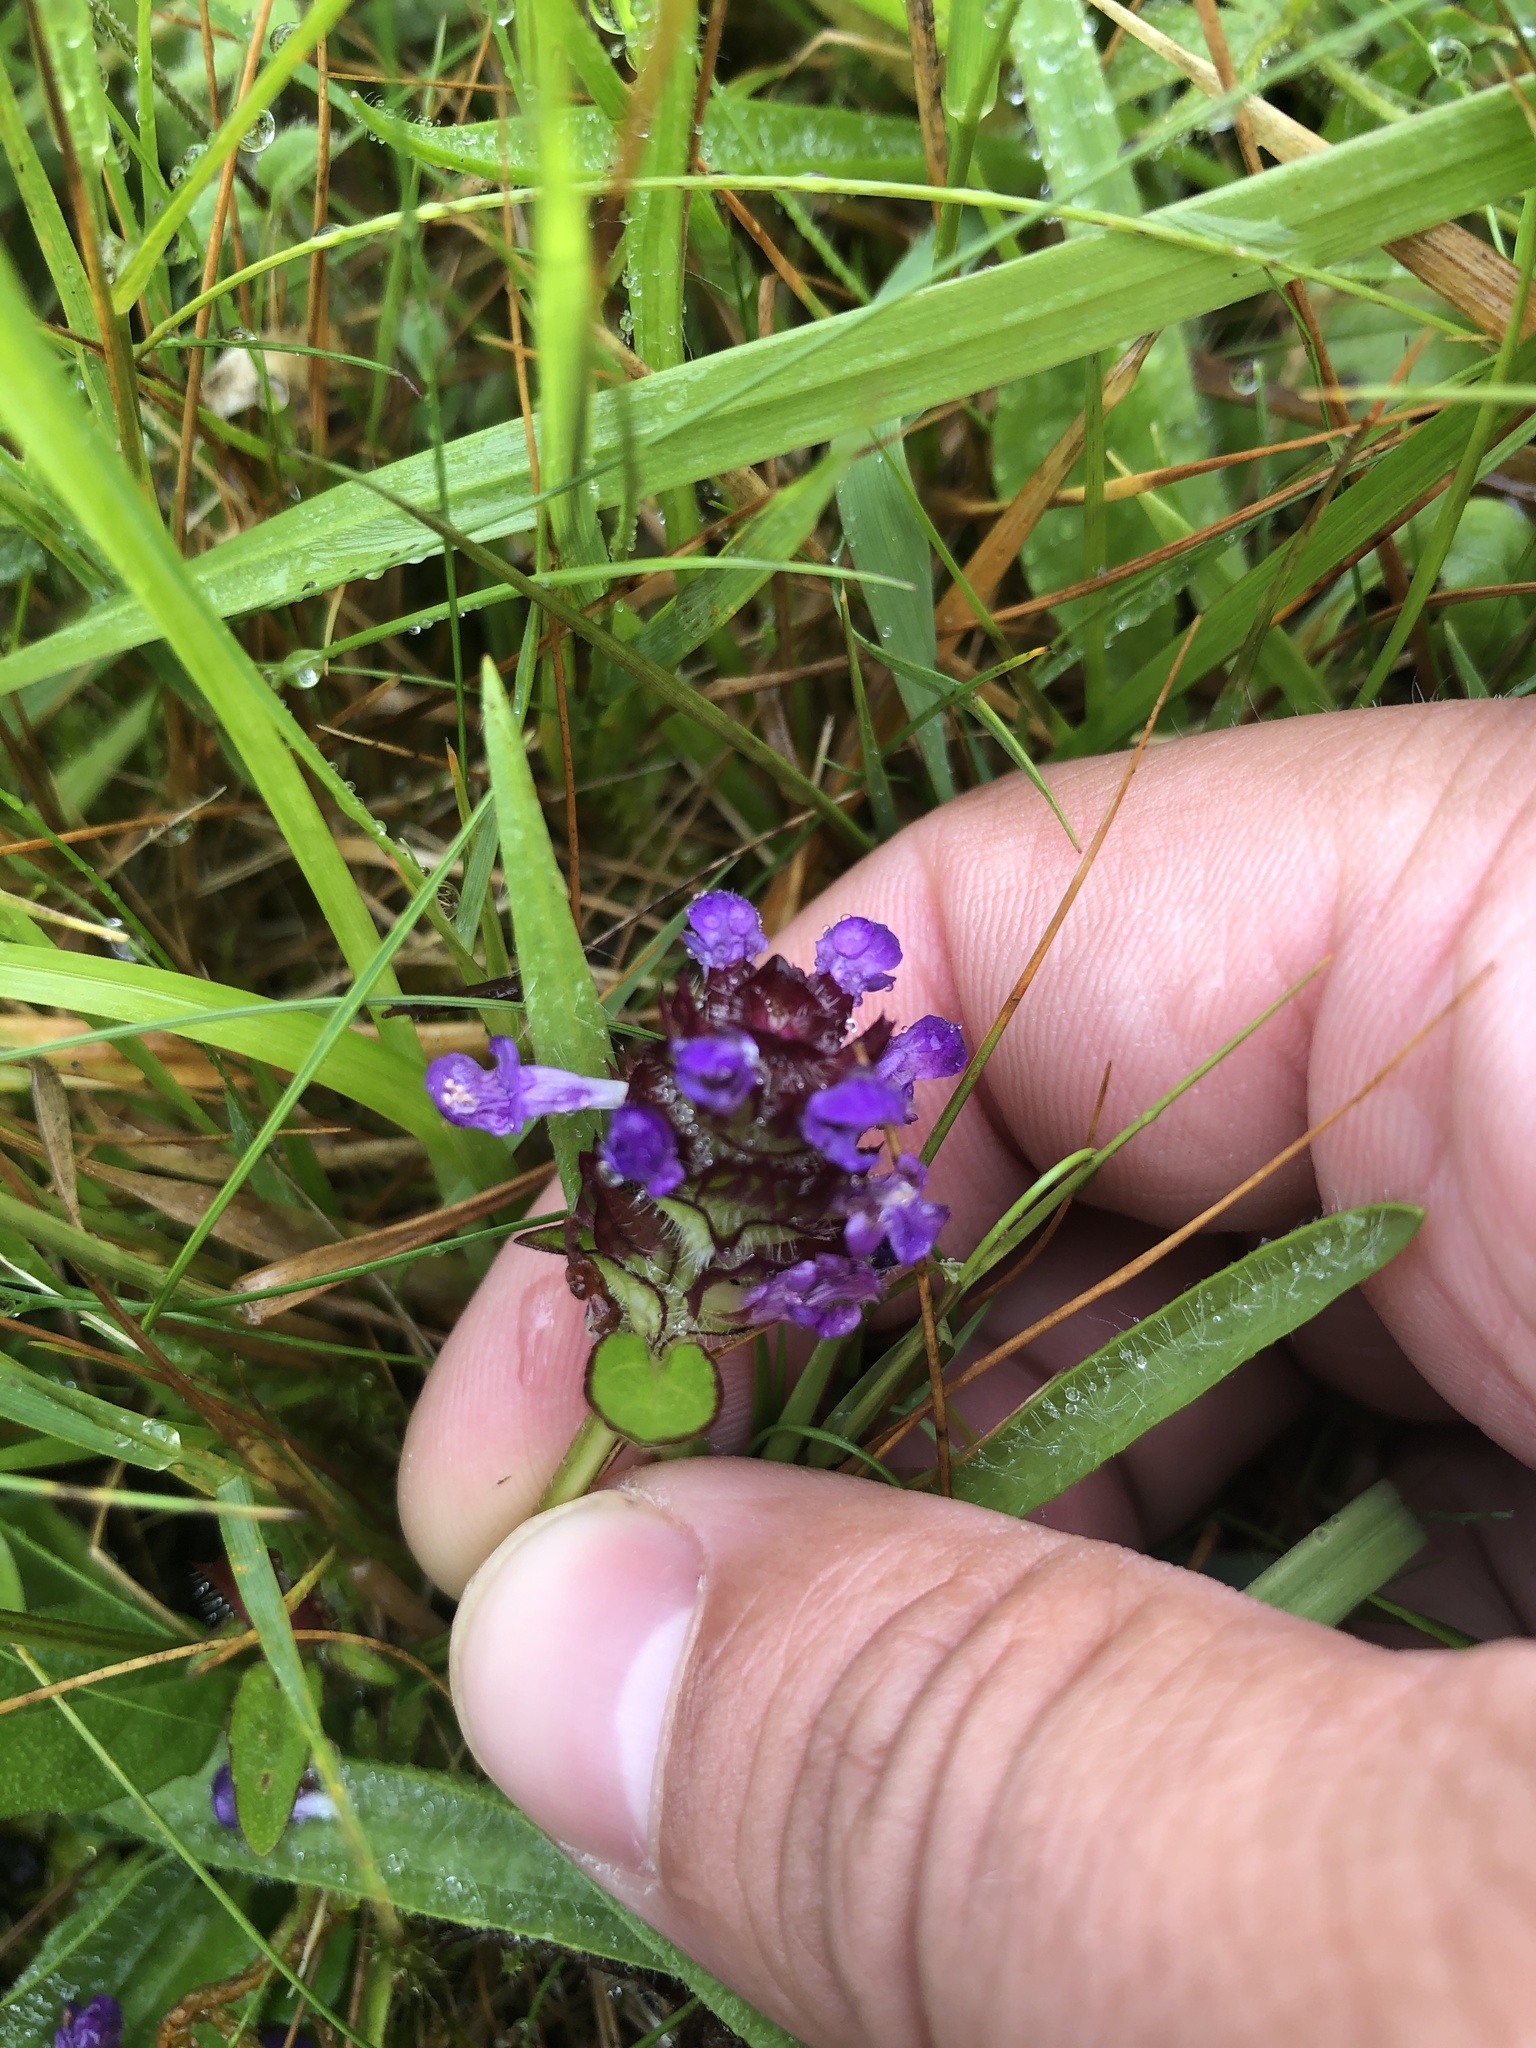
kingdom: Plantae
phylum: Tracheophyta
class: Magnoliopsida
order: Lamiales
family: Lamiaceae
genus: Prunella
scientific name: Prunella vulgaris
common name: Heal-all
